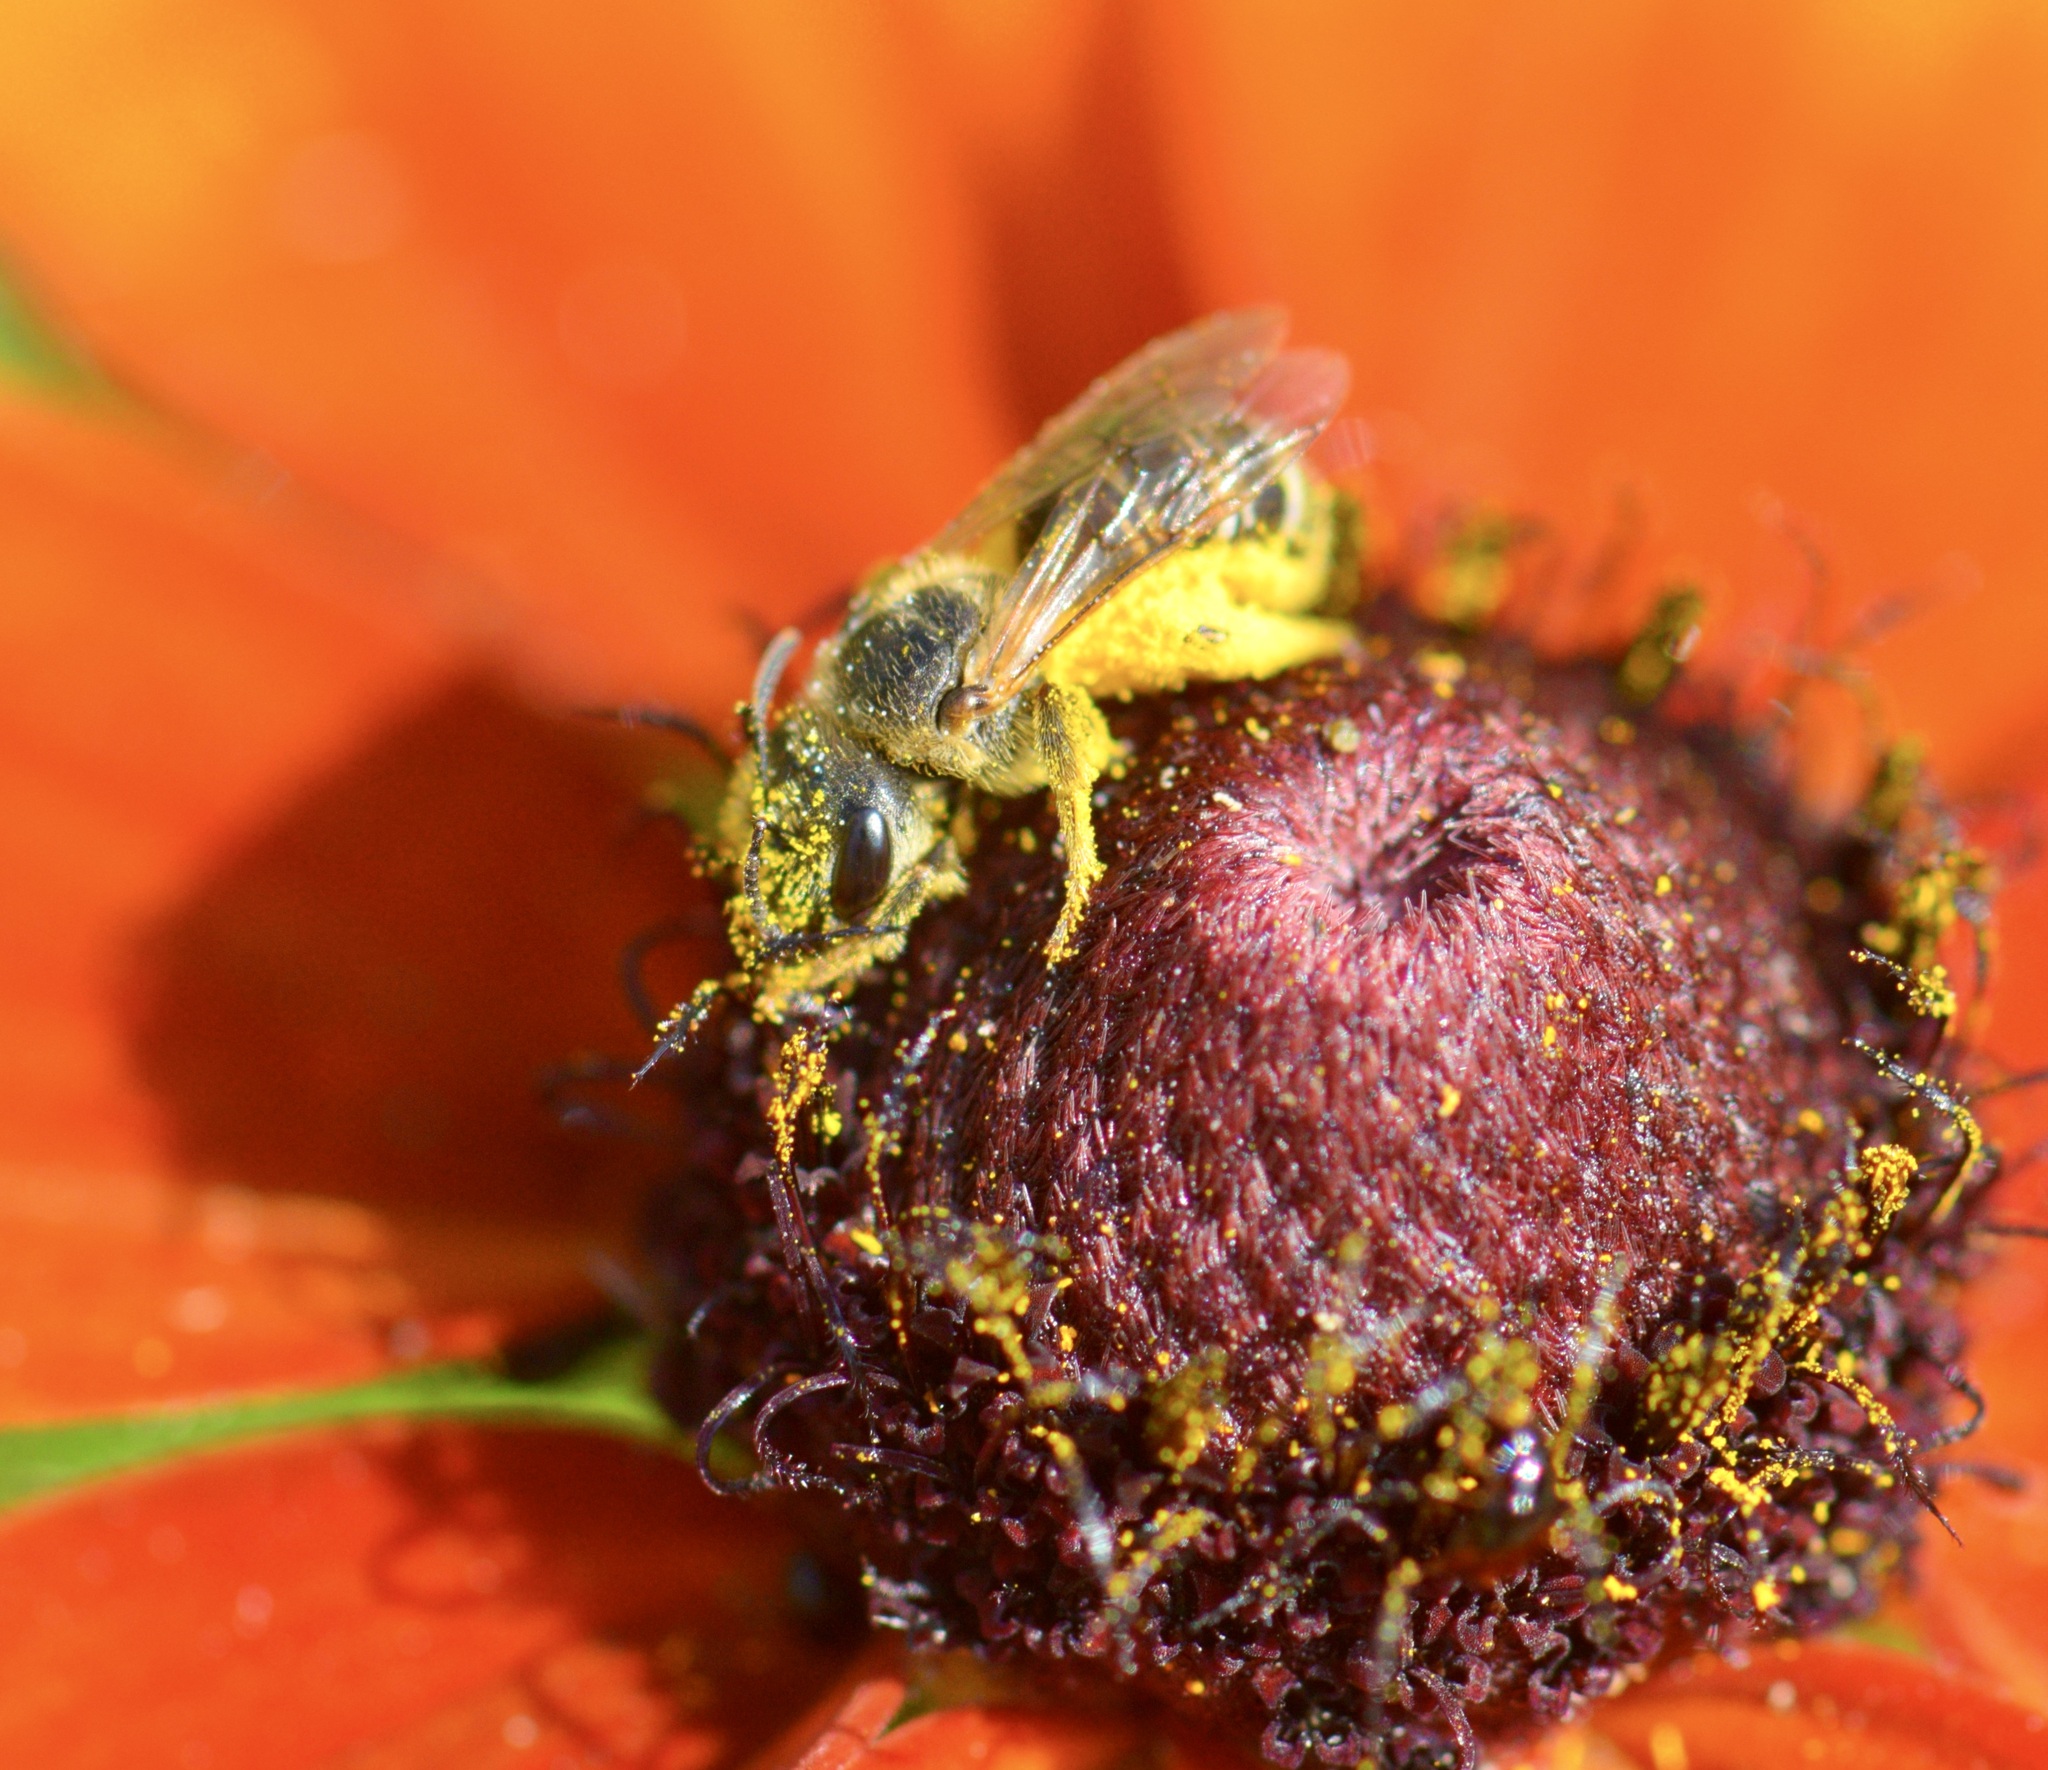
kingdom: Animalia
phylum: Arthropoda
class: Insecta
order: Hymenoptera
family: Halictidae
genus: Halictus
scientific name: Halictus ligatus
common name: Ligated furrow bee
